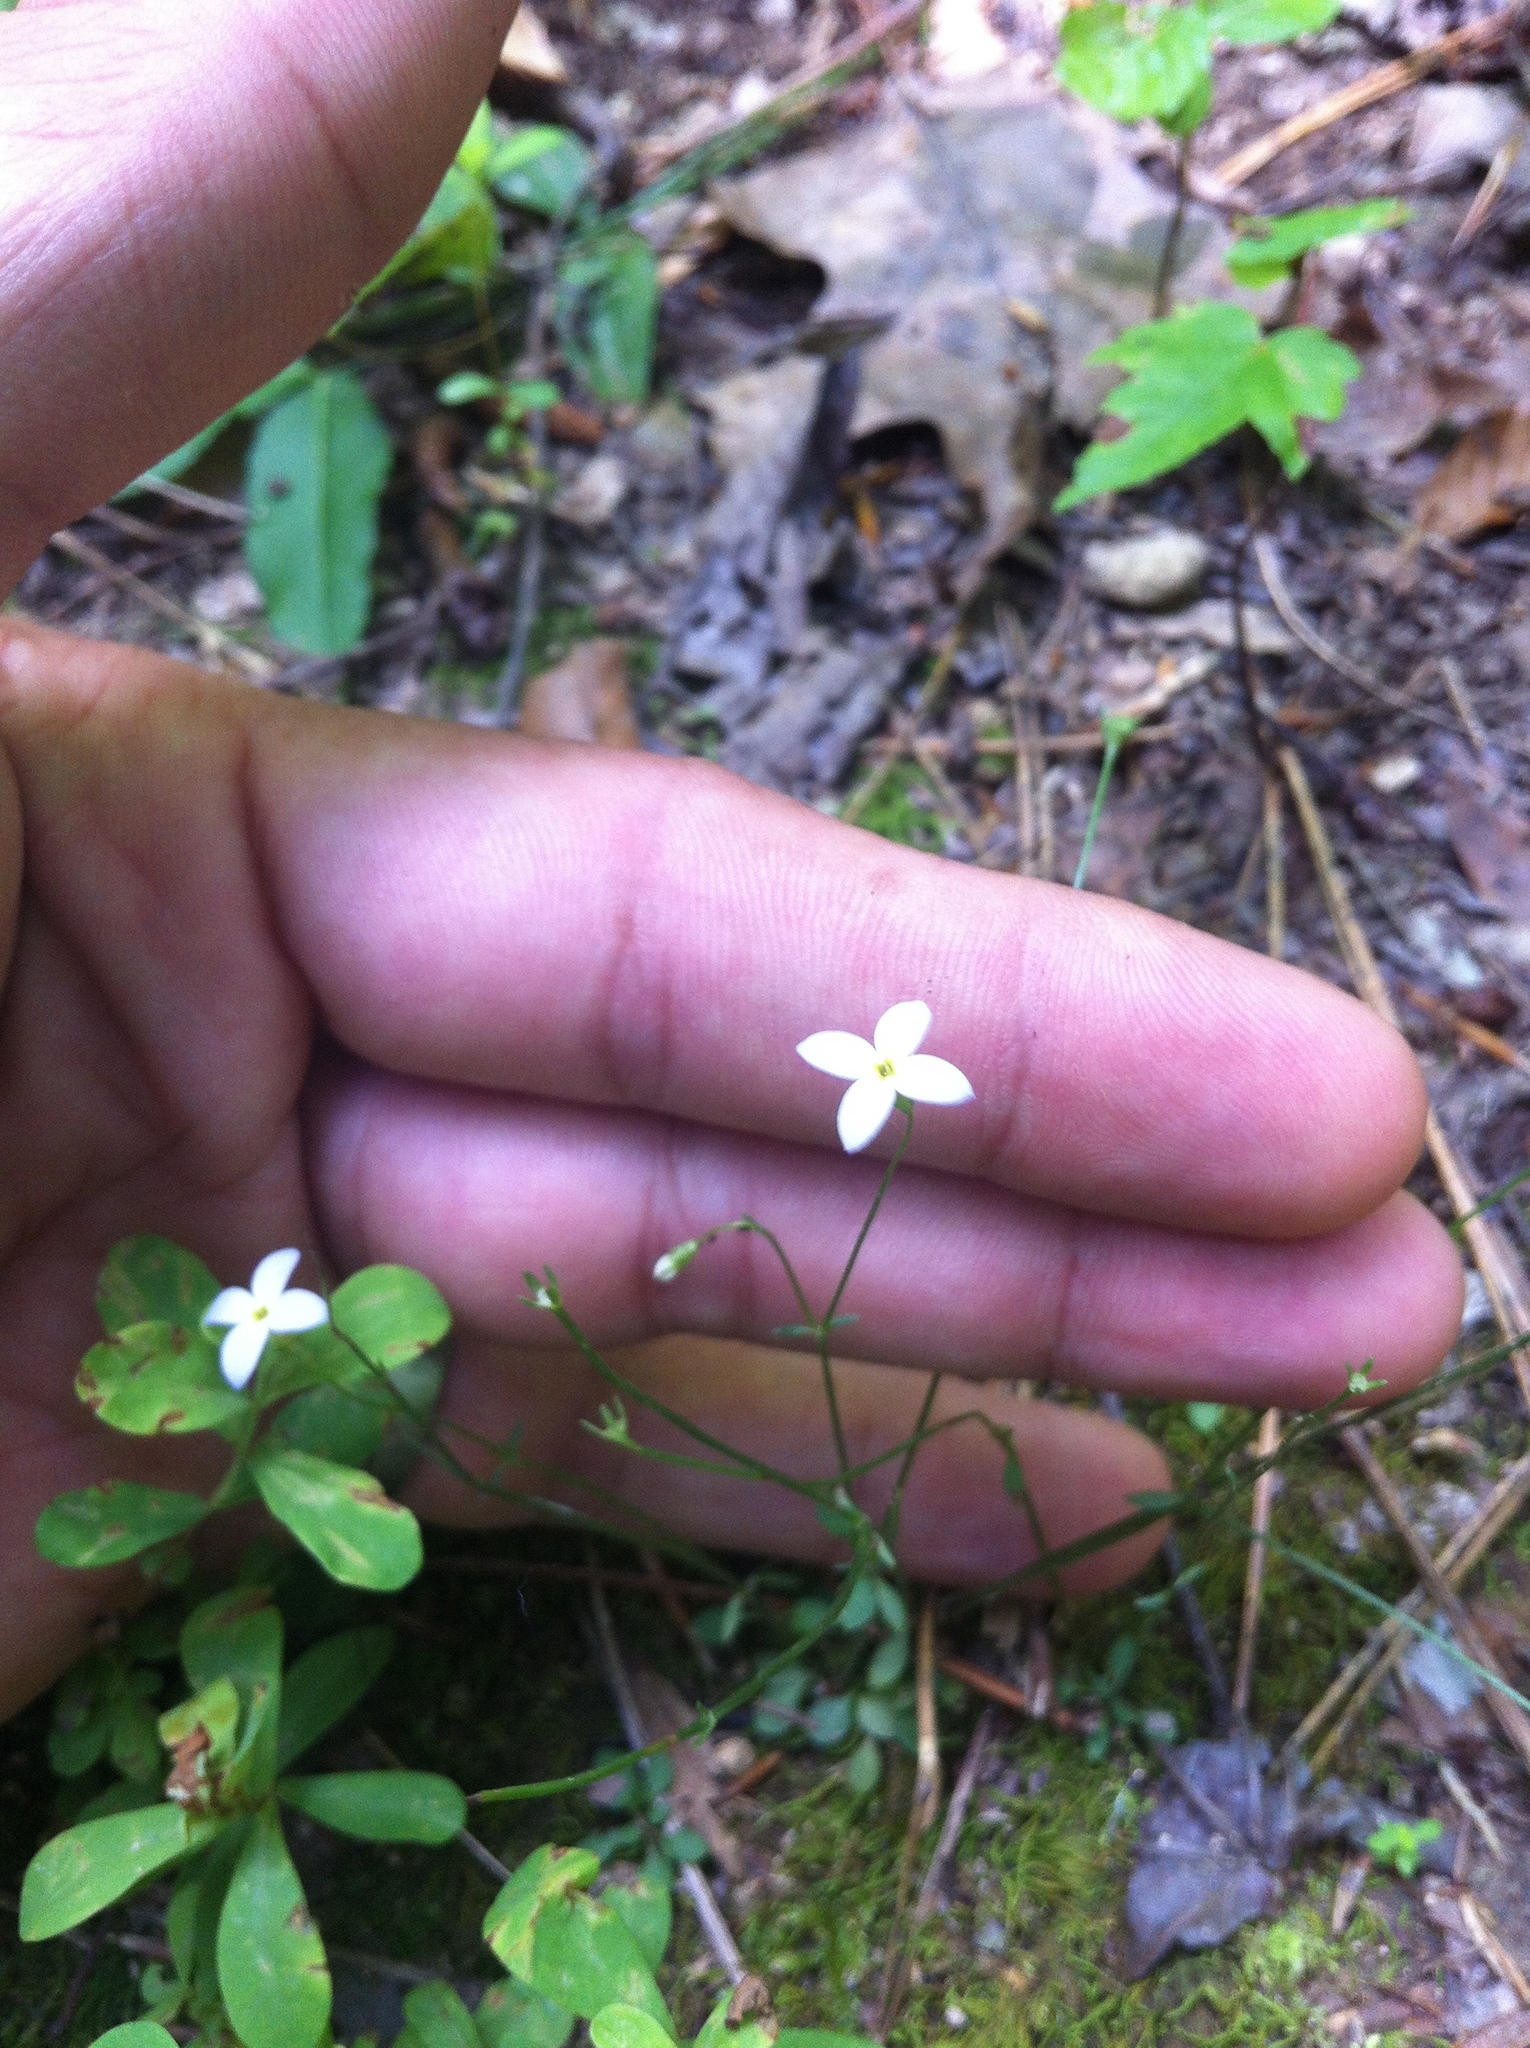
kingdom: Plantae
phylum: Tracheophyta
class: Magnoliopsida
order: Gentianales
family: Rubiaceae
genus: Houstonia
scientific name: Houstonia caerulea
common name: Bluets
